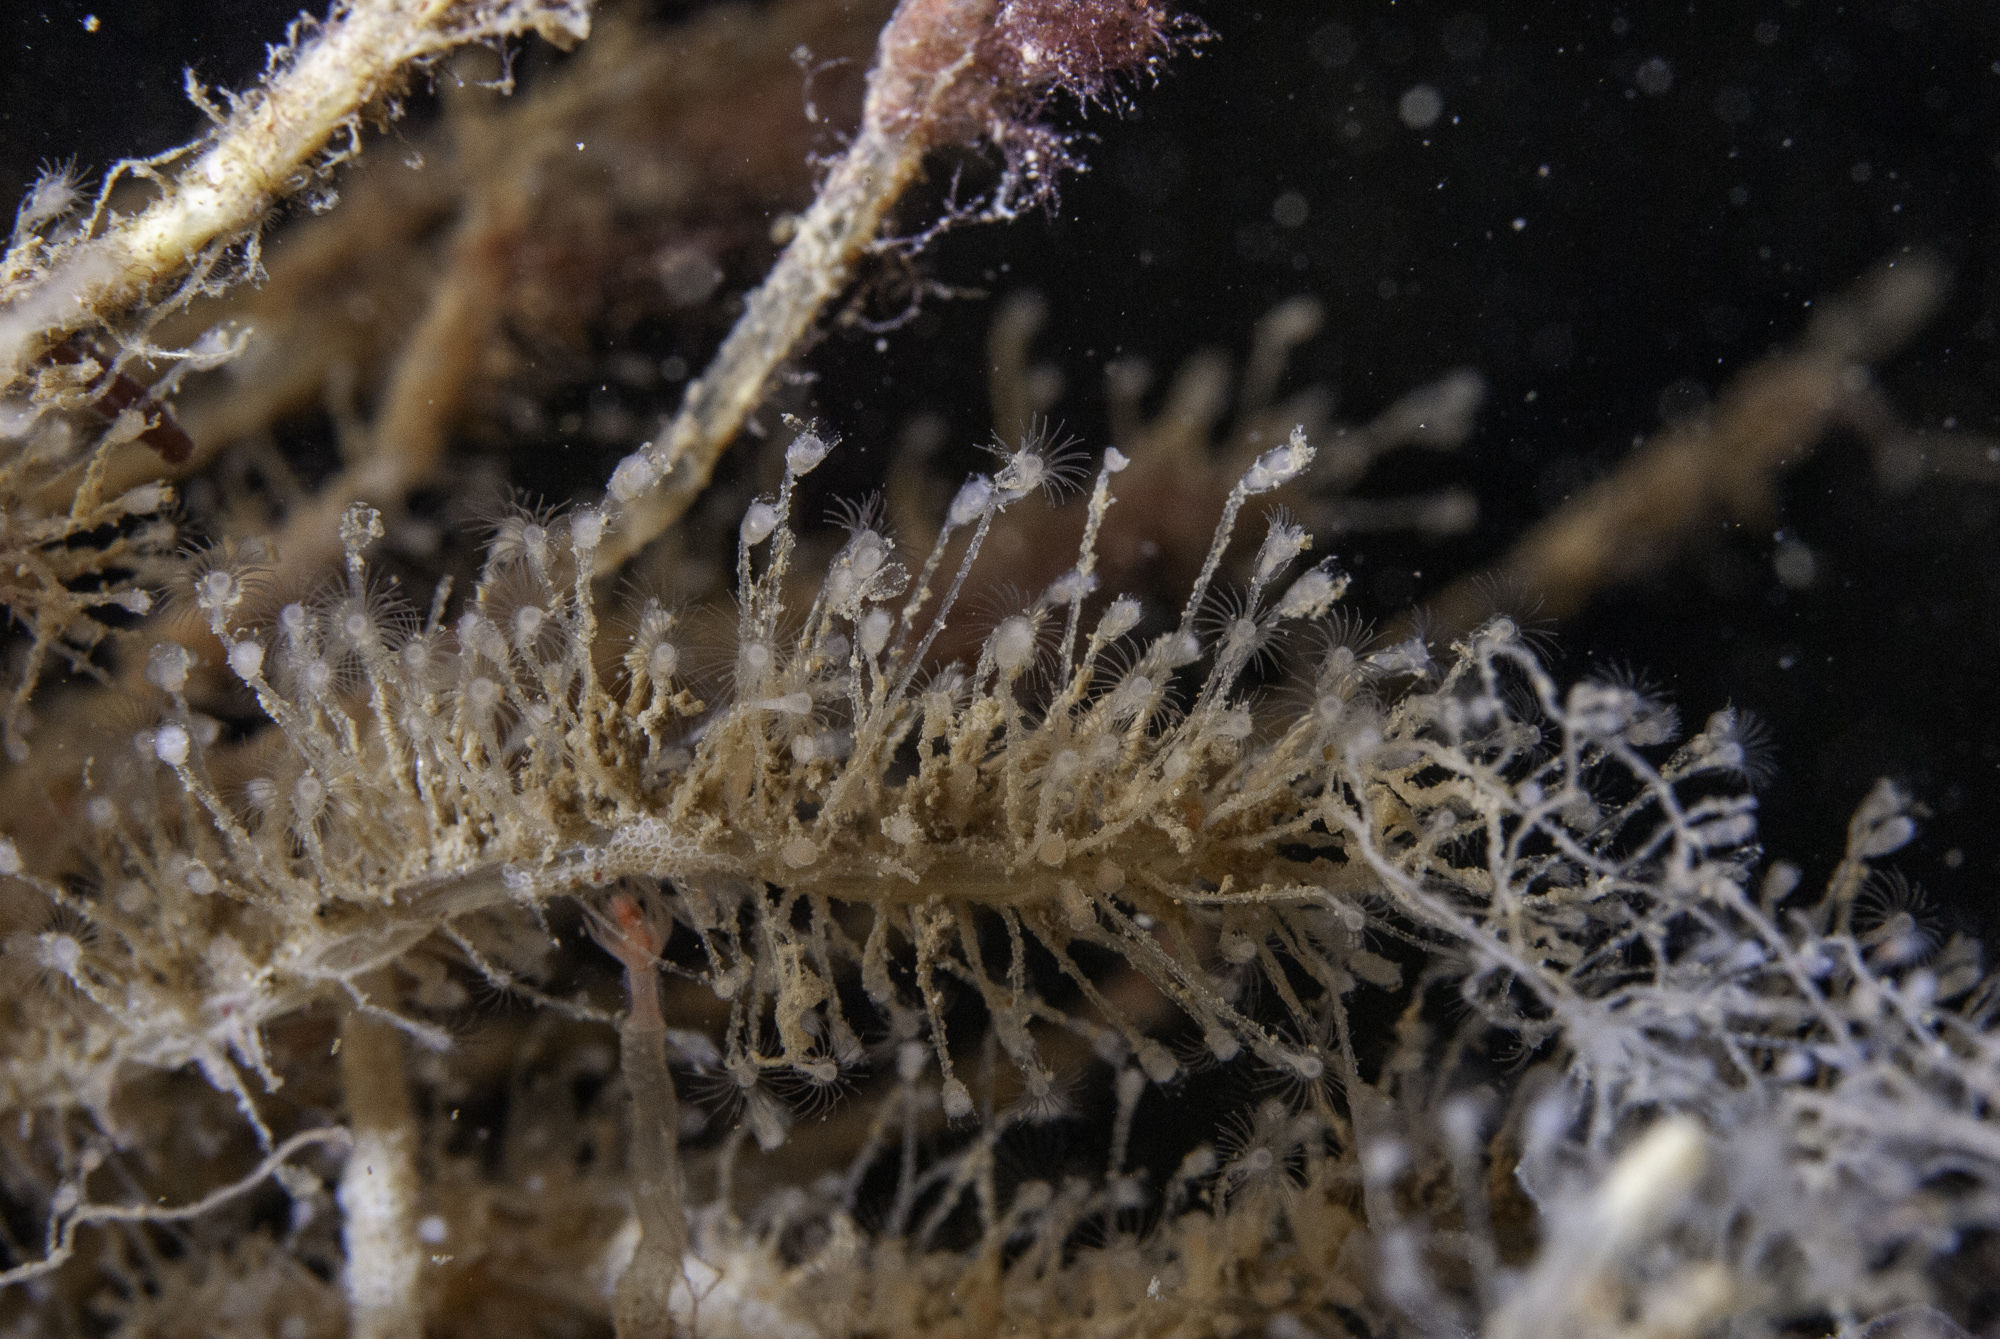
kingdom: Animalia
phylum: Cnidaria
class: Hydrozoa
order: Leptothecata
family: Campanulariidae
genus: Clytia
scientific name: Clytia hemisphaerica
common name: Hydroid
